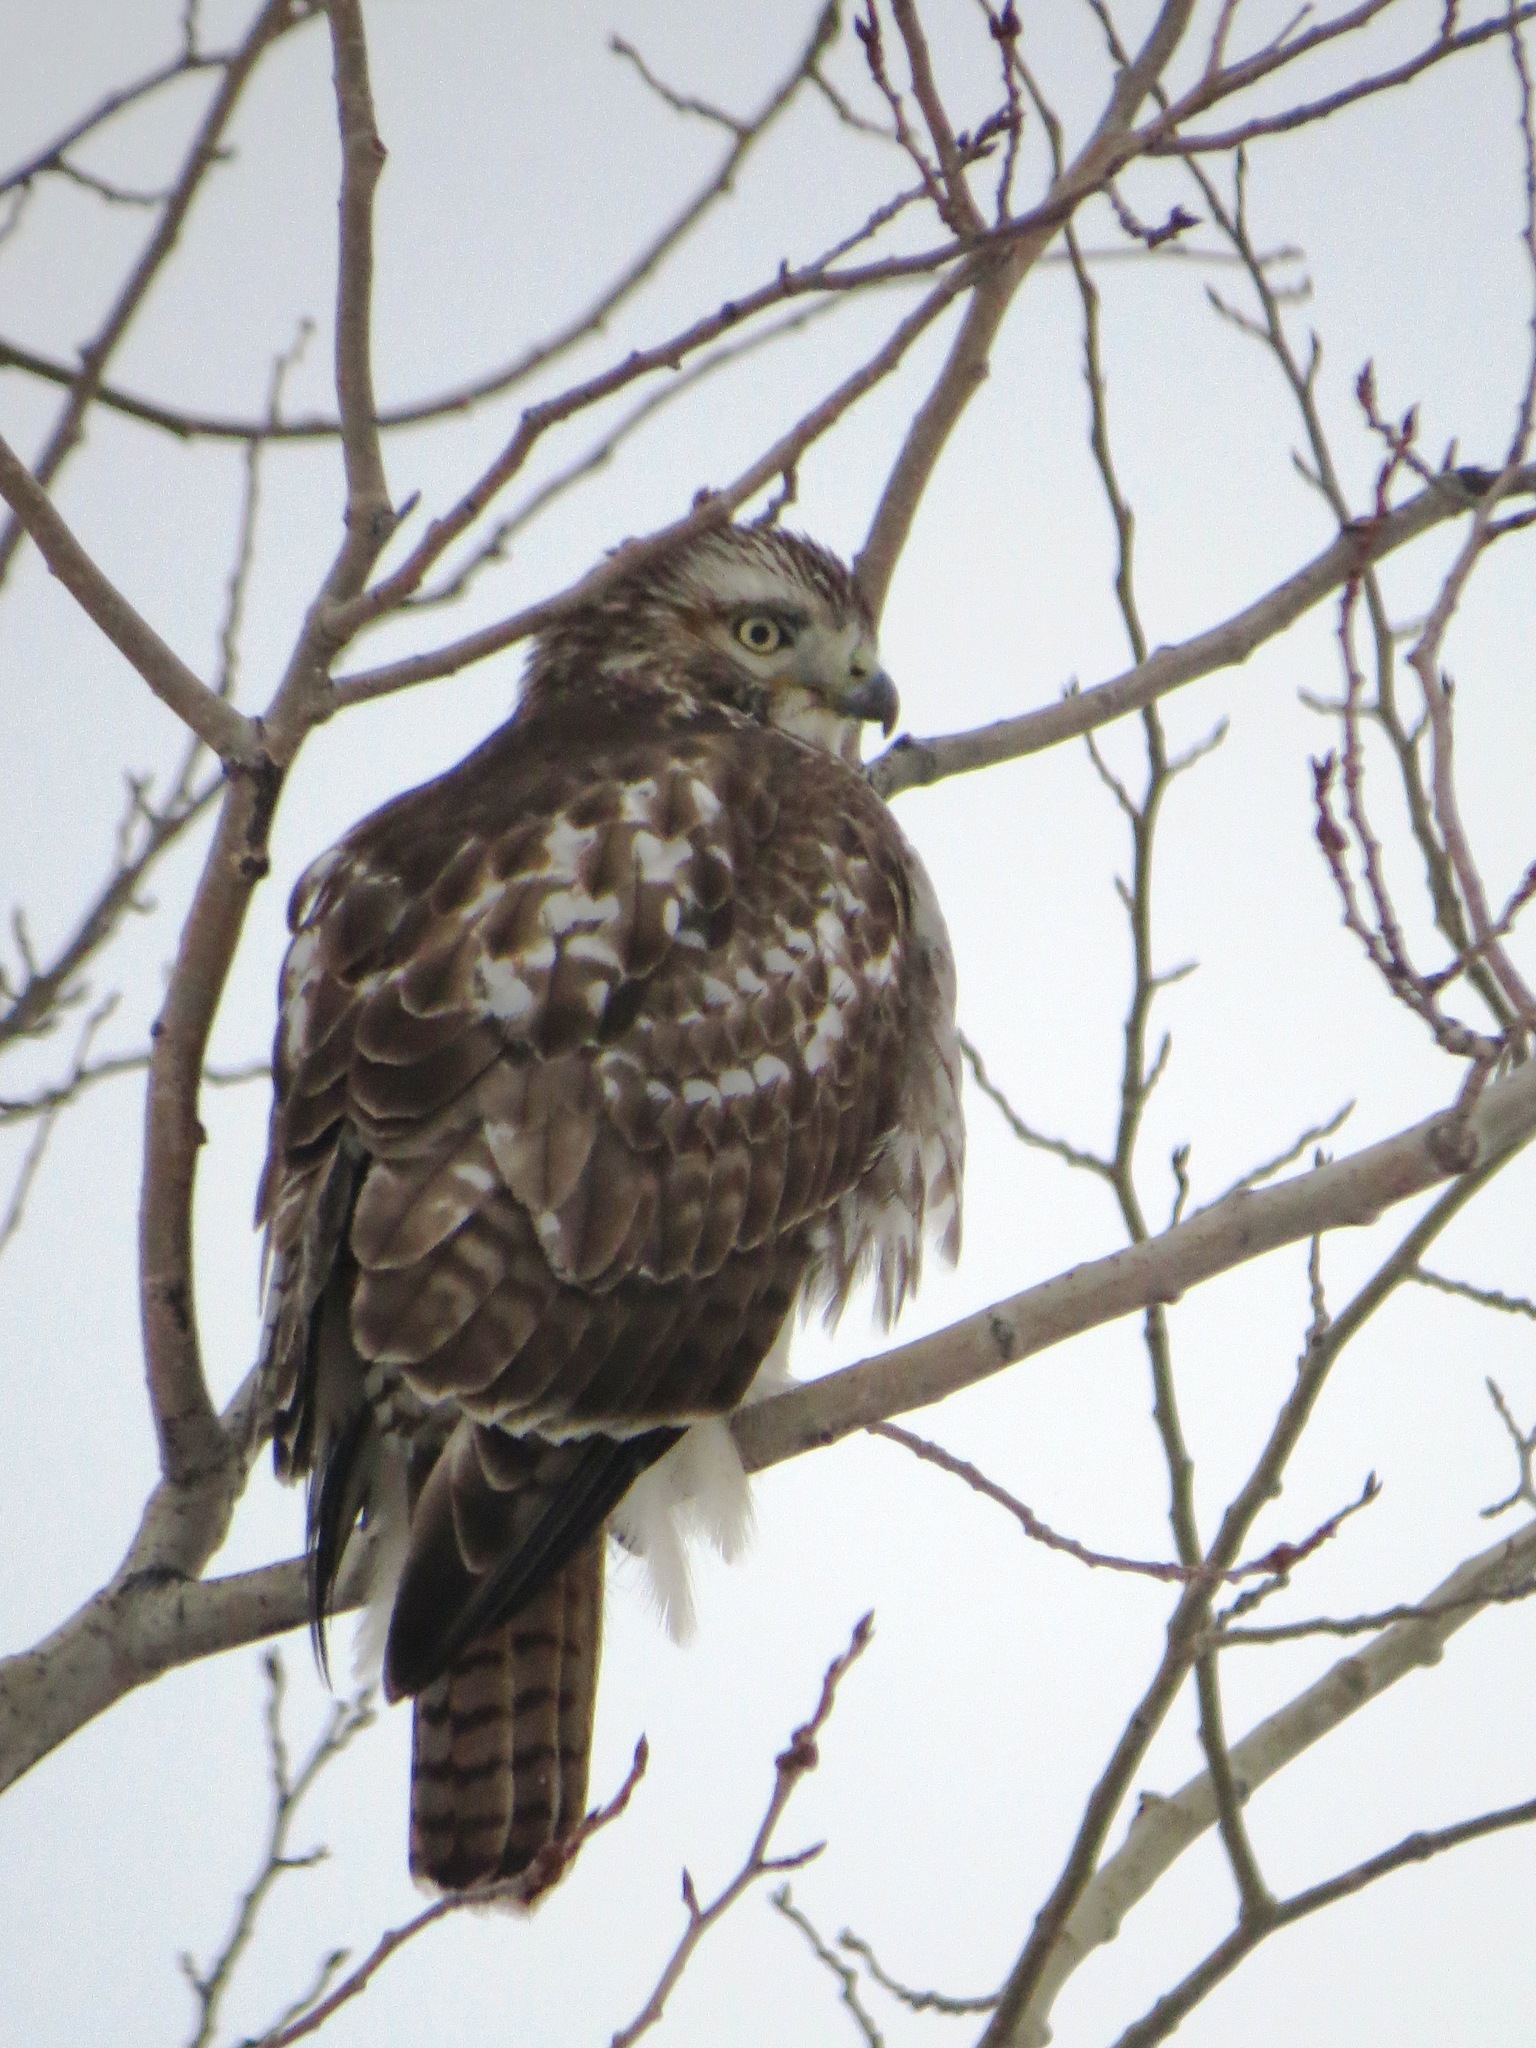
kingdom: Animalia
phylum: Chordata
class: Aves
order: Accipitriformes
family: Accipitridae
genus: Buteo
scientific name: Buteo jamaicensis
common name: Red-tailed hawk
